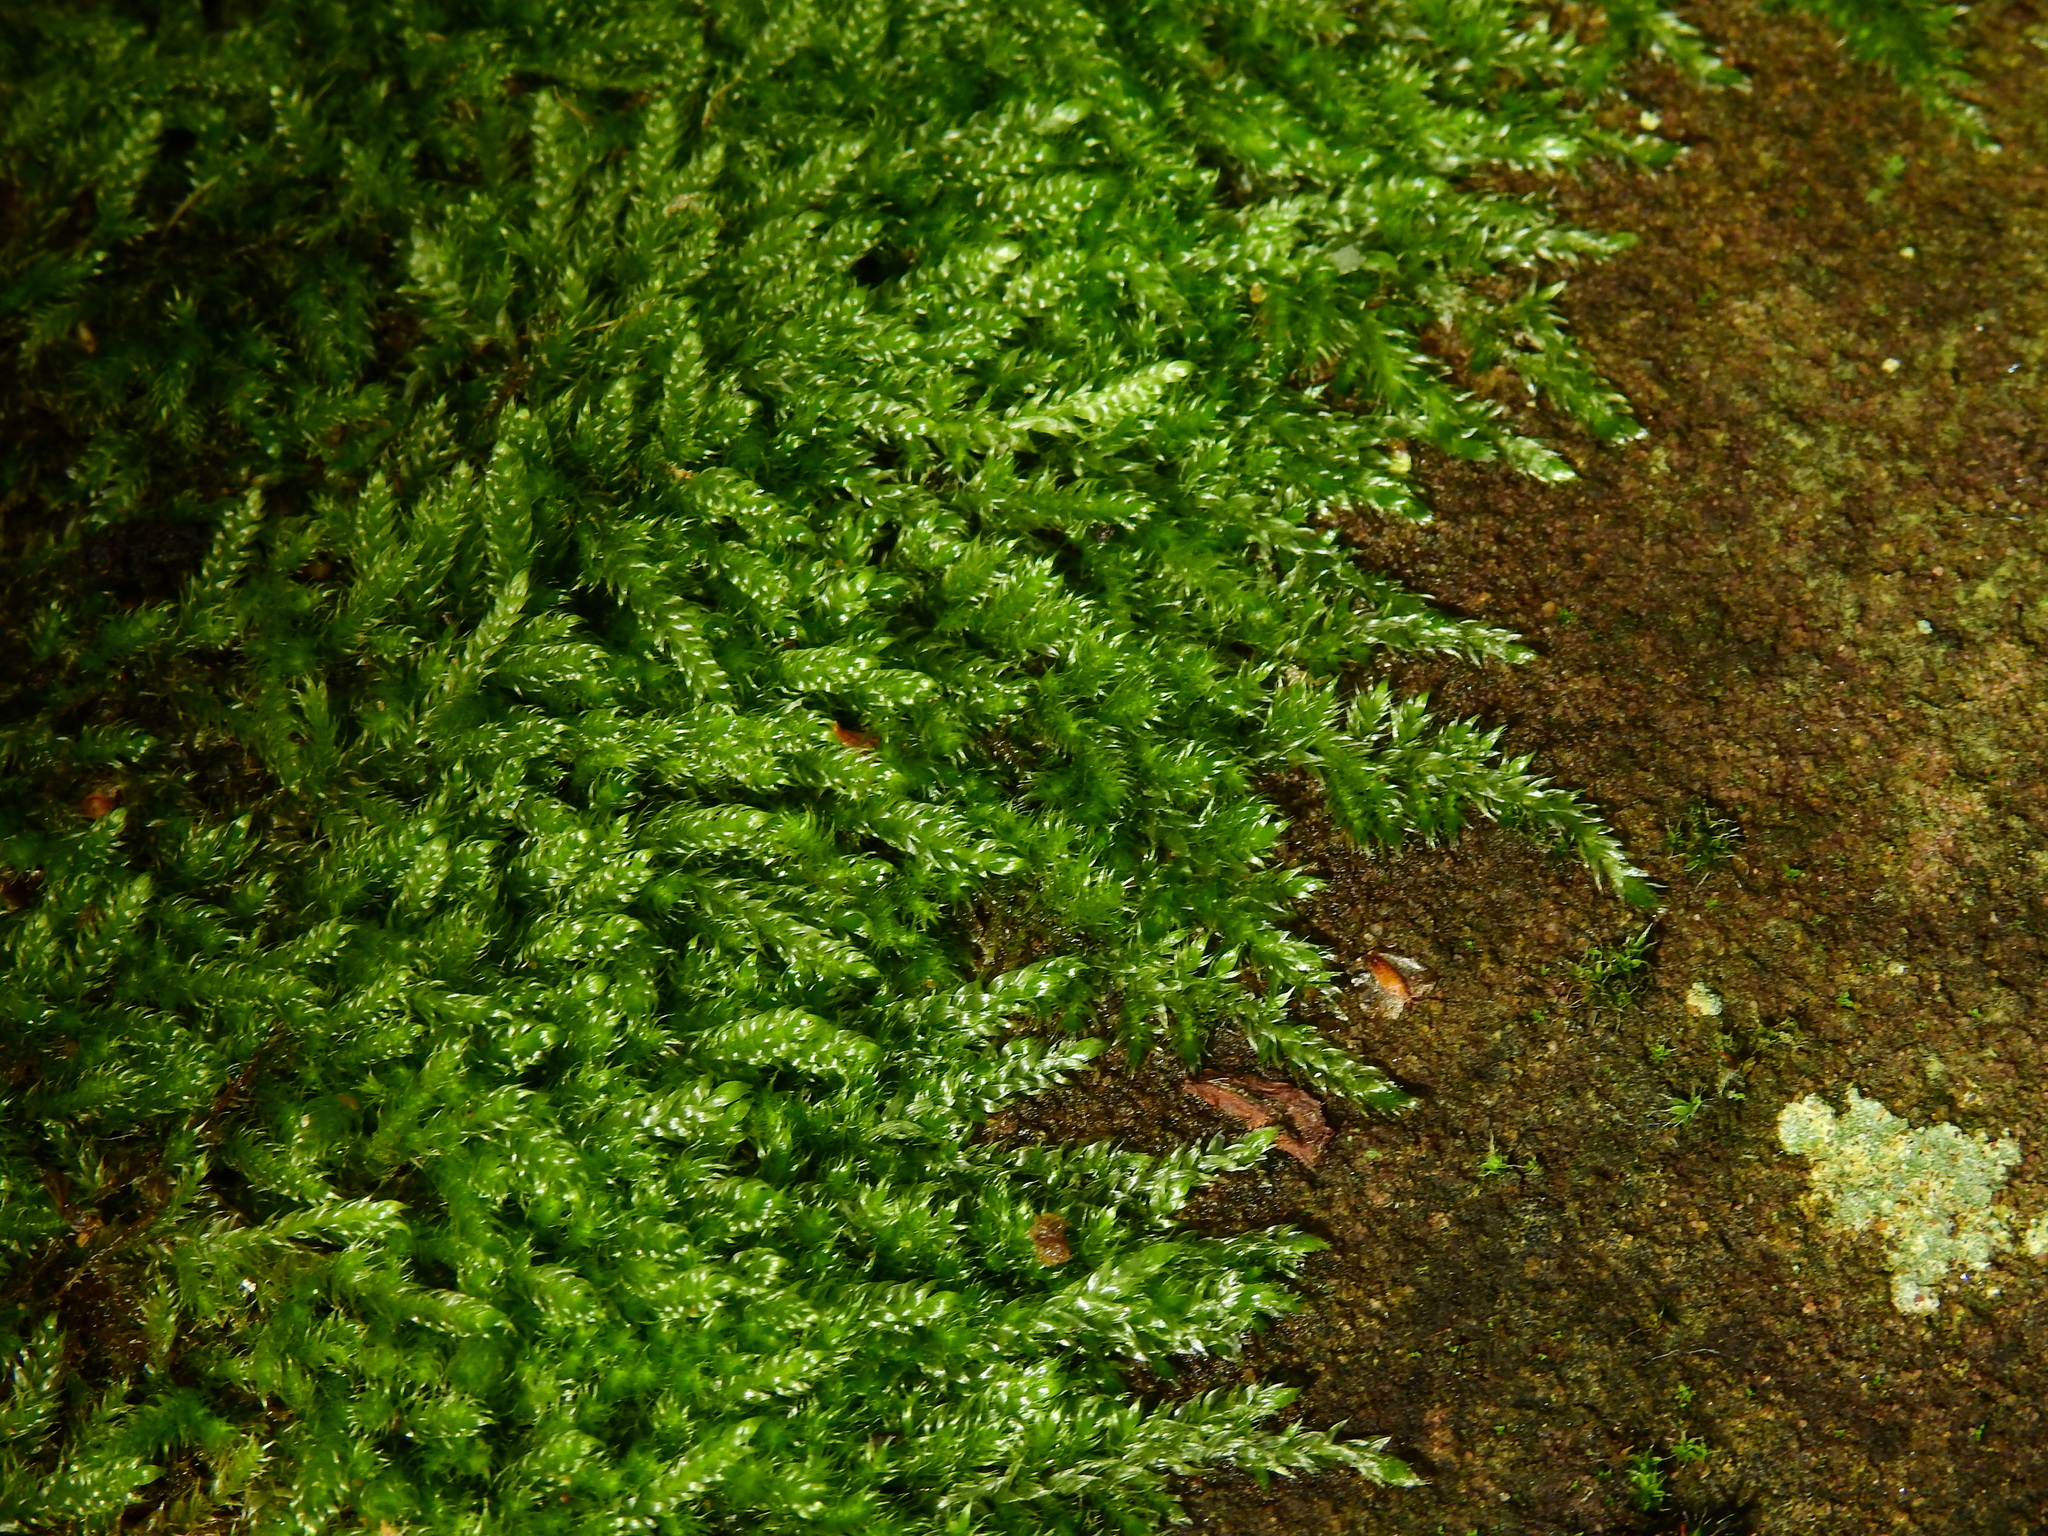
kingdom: Plantae
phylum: Bryophyta
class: Bryopsida
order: Hypnales
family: Hypnaceae
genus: Hypnum
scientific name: Hypnum cupressiforme
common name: Cypress-leaved plait-moss
